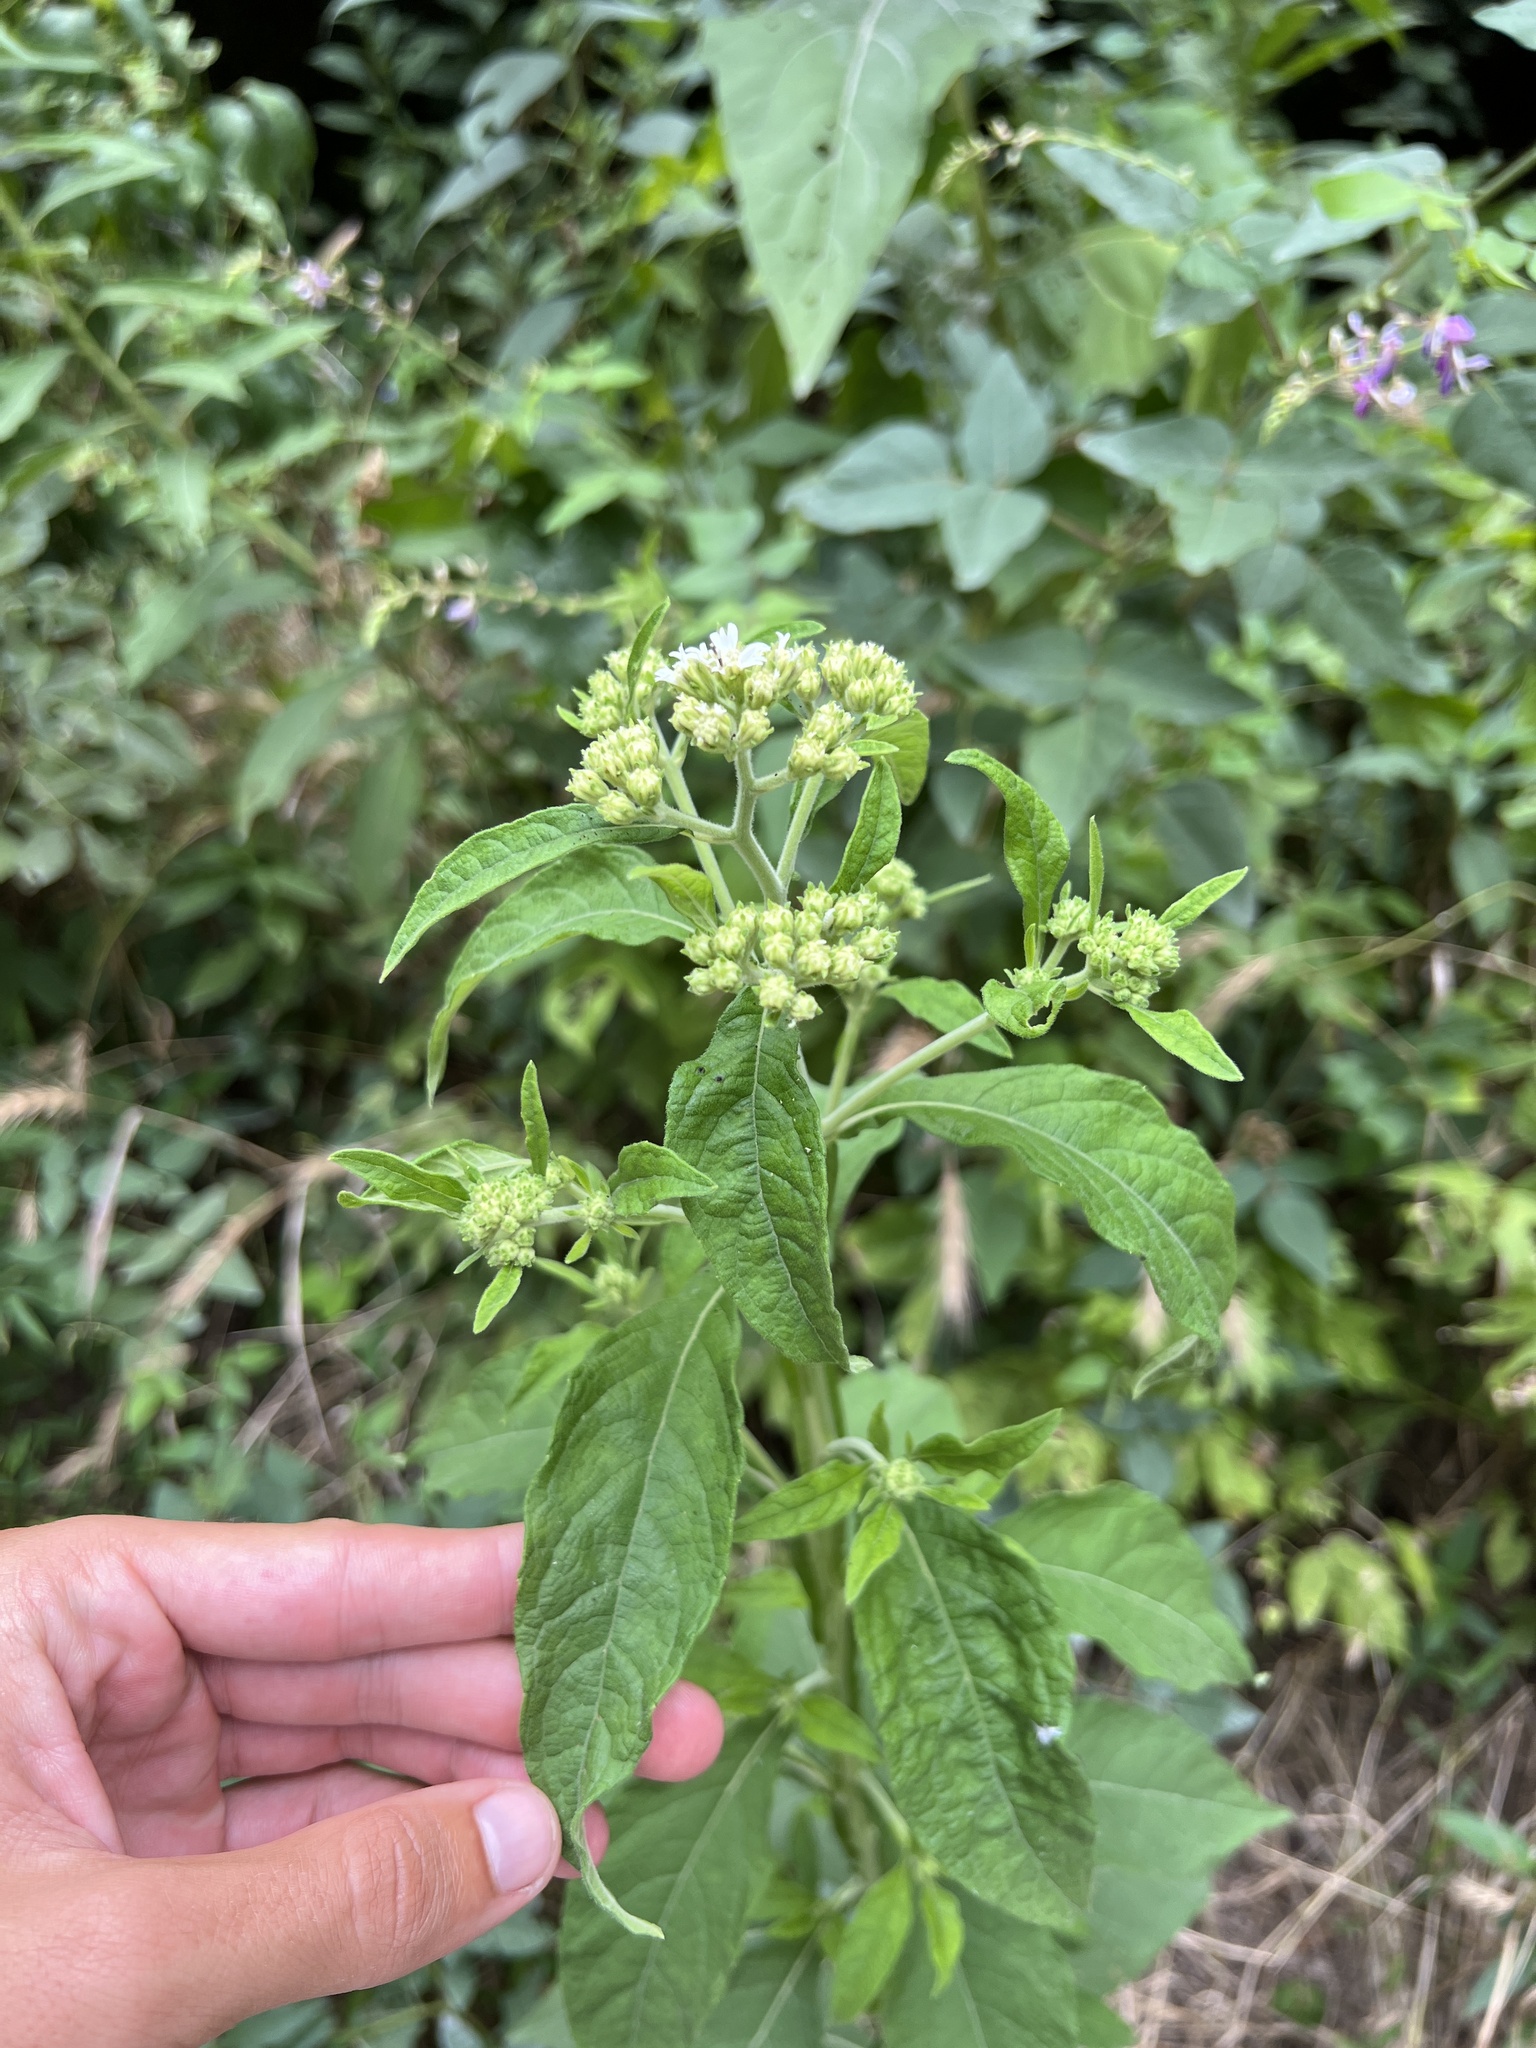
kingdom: Plantae
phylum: Tracheophyta
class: Magnoliopsida
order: Asterales
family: Asteraceae
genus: Verbesina
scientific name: Verbesina virginica
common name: Frostweed
